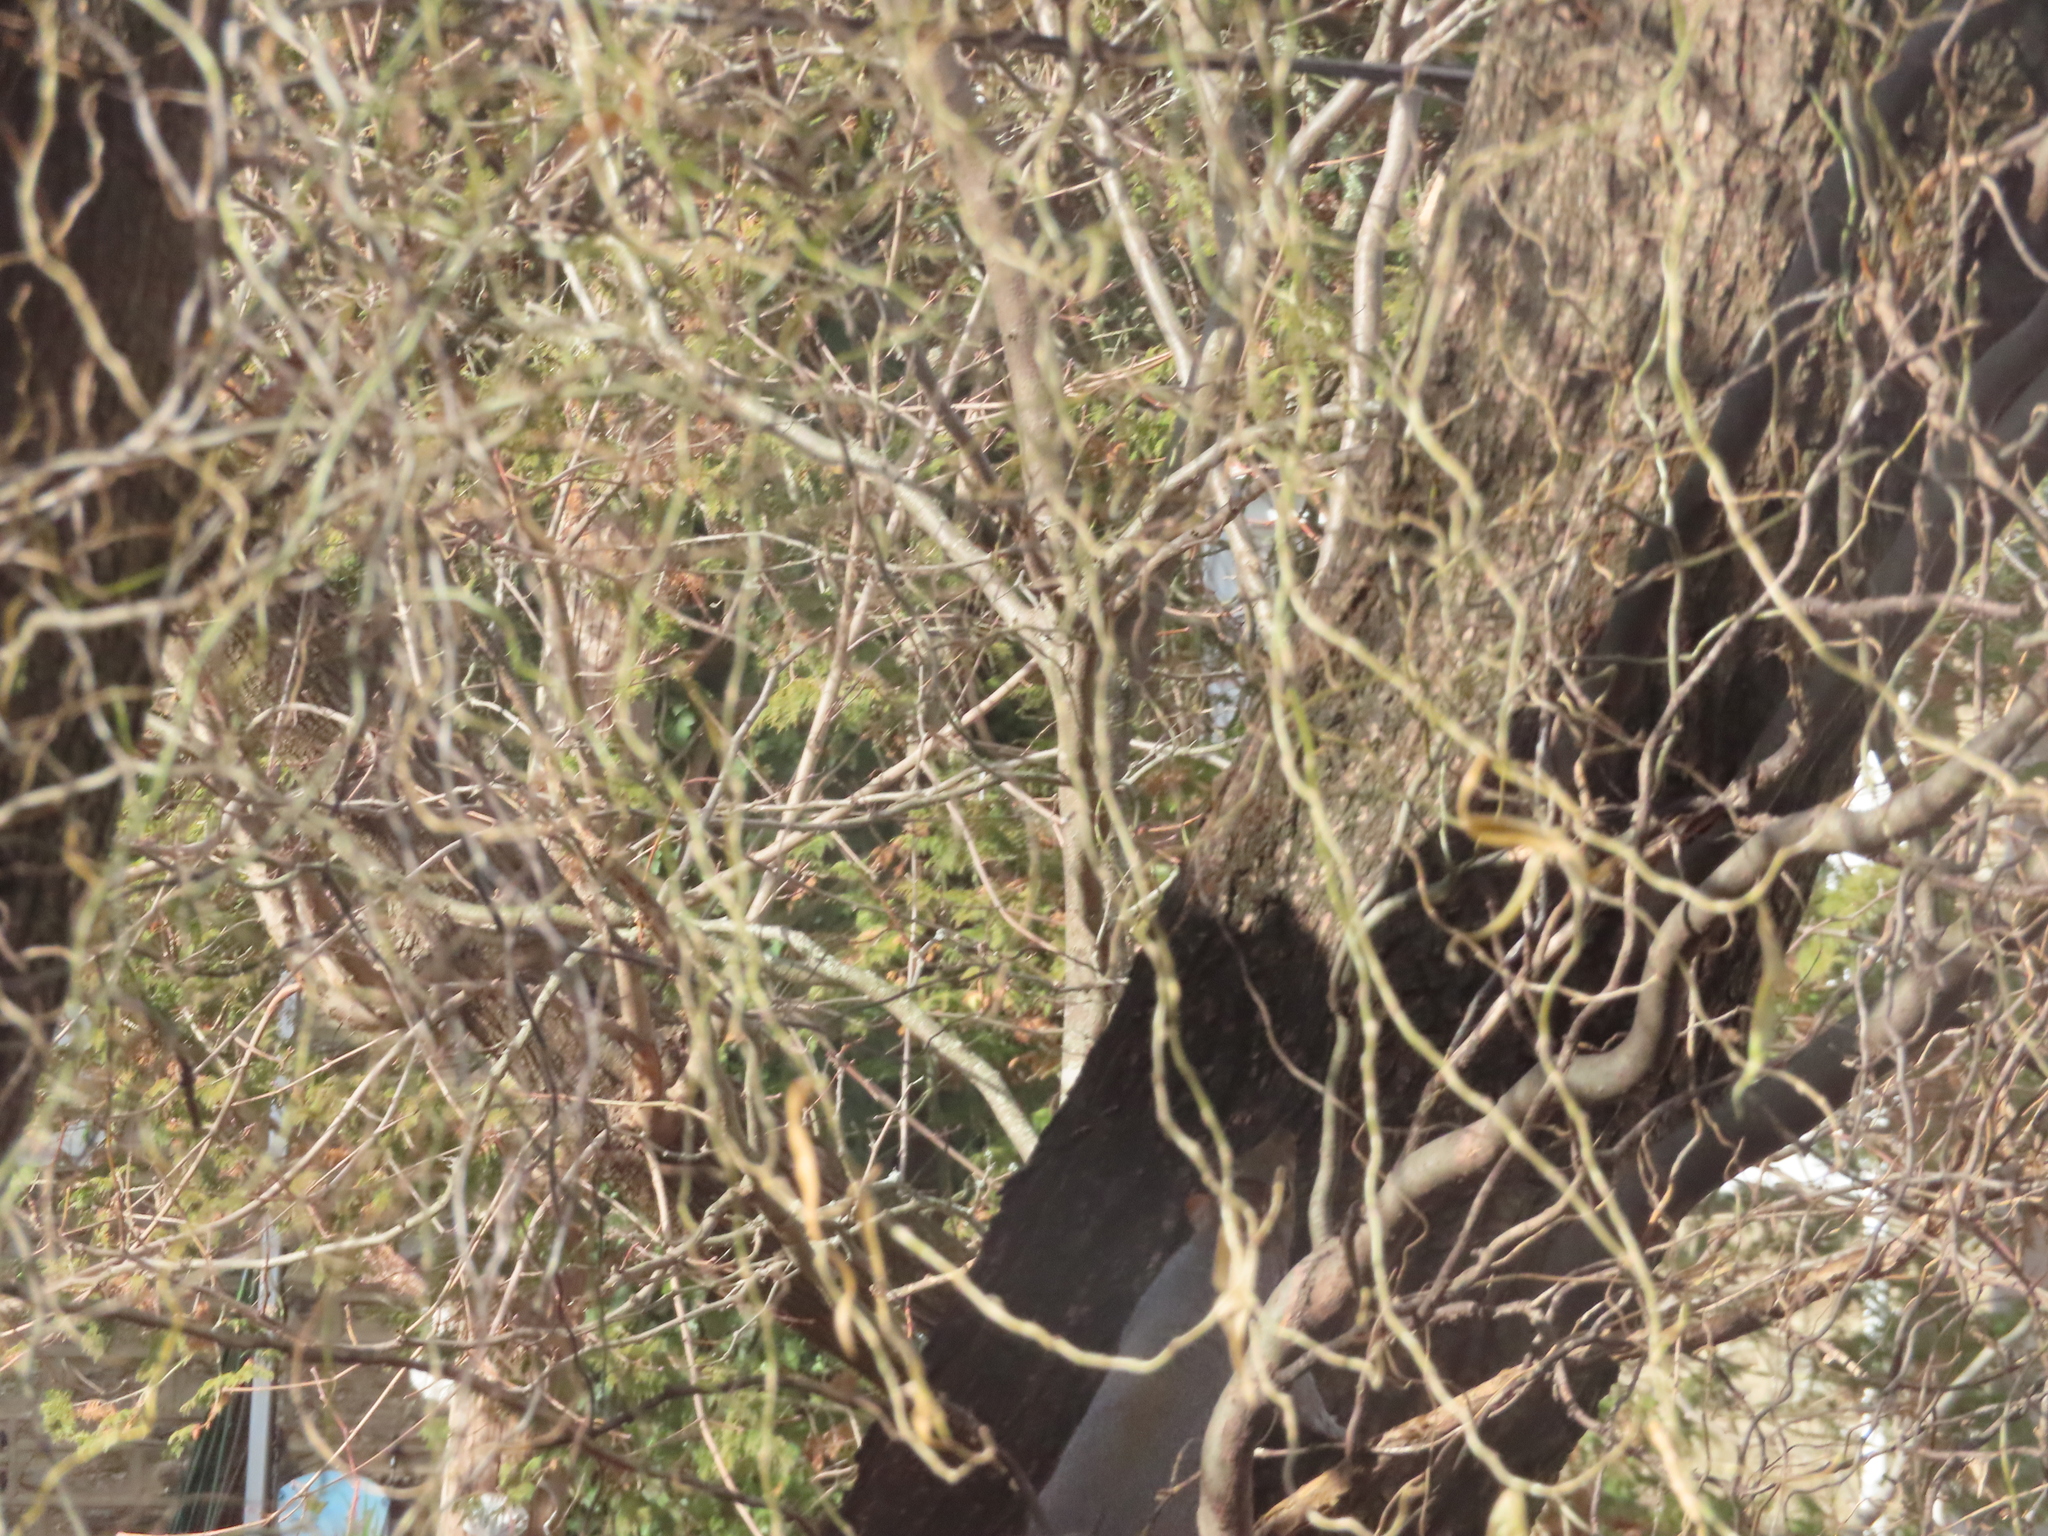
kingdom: Animalia
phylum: Chordata
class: Mammalia
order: Rodentia
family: Sciuridae
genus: Sciurus
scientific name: Sciurus carolinensis
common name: Eastern gray squirrel
